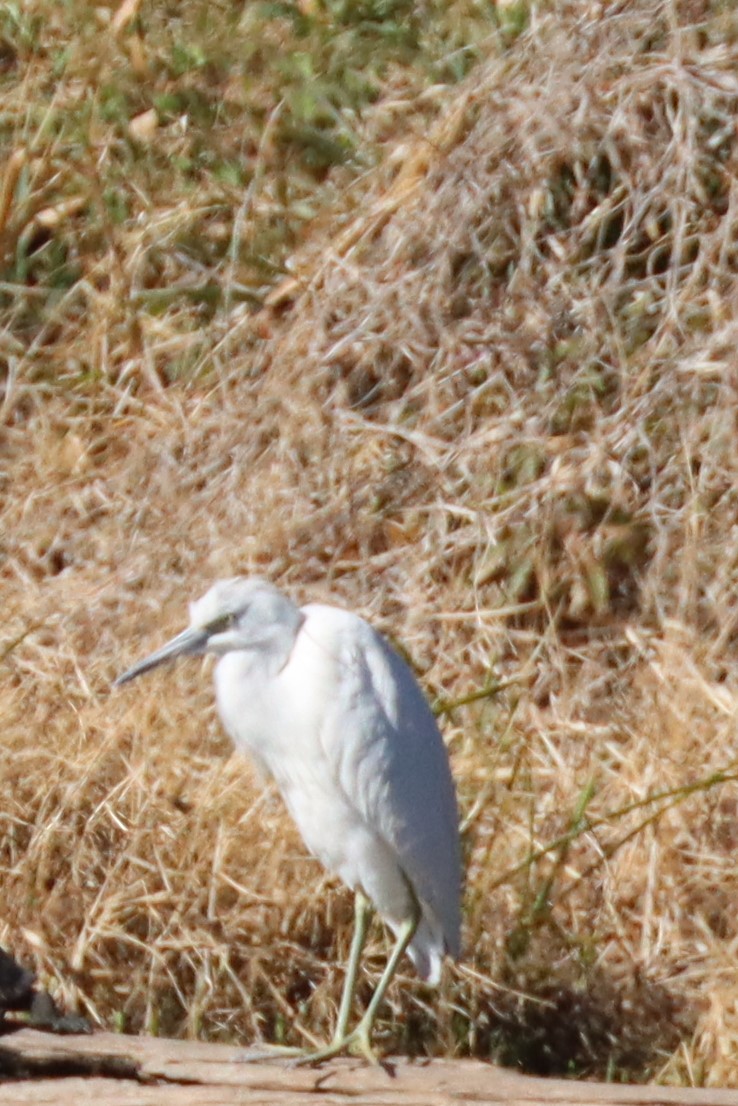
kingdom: Animalia
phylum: Chordata
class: Aves
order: Pelecaniformes
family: Ardeidae
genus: Egretta
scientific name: Egretta caerulea
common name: Little blue heron
